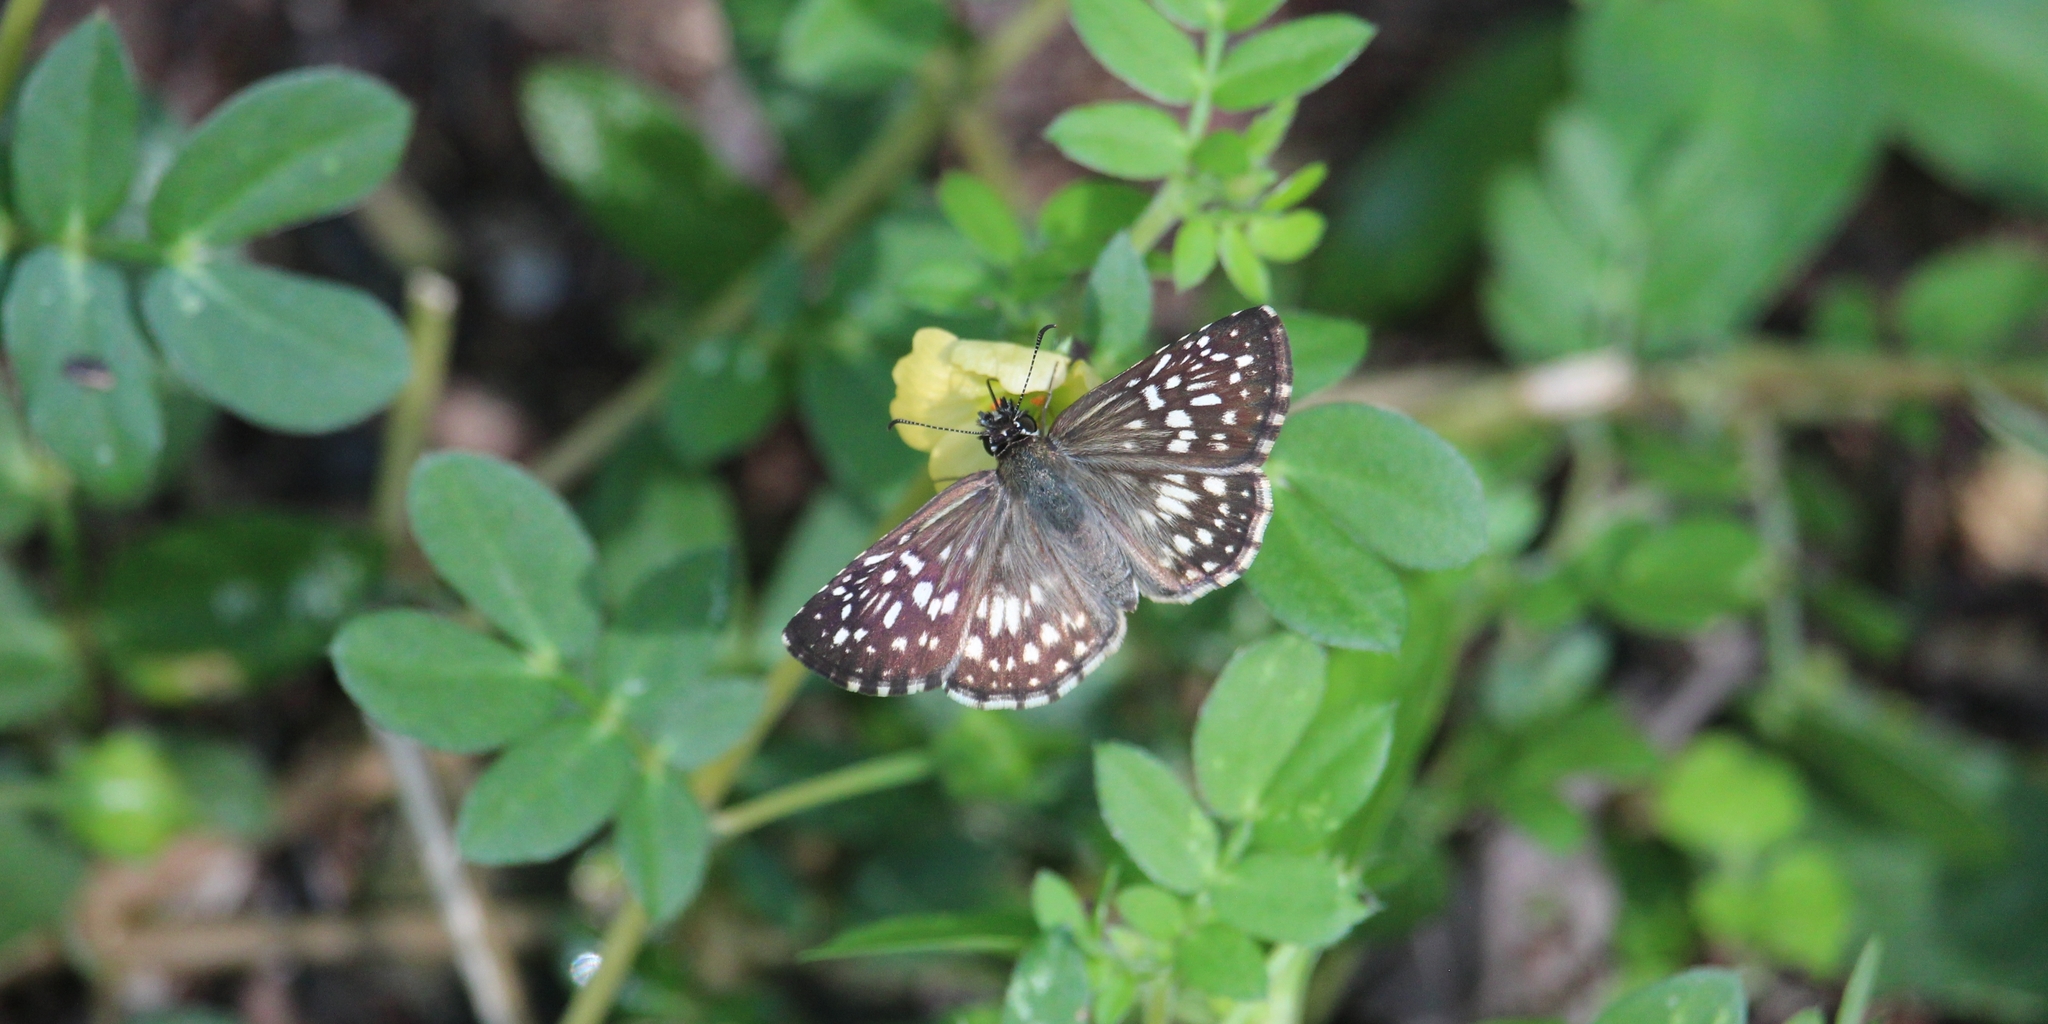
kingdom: Animalia
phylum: Arthropoda
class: Insecta
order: Lepidoptera
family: Hesperiidae
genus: Burnsius
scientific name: Burnsius adepta
